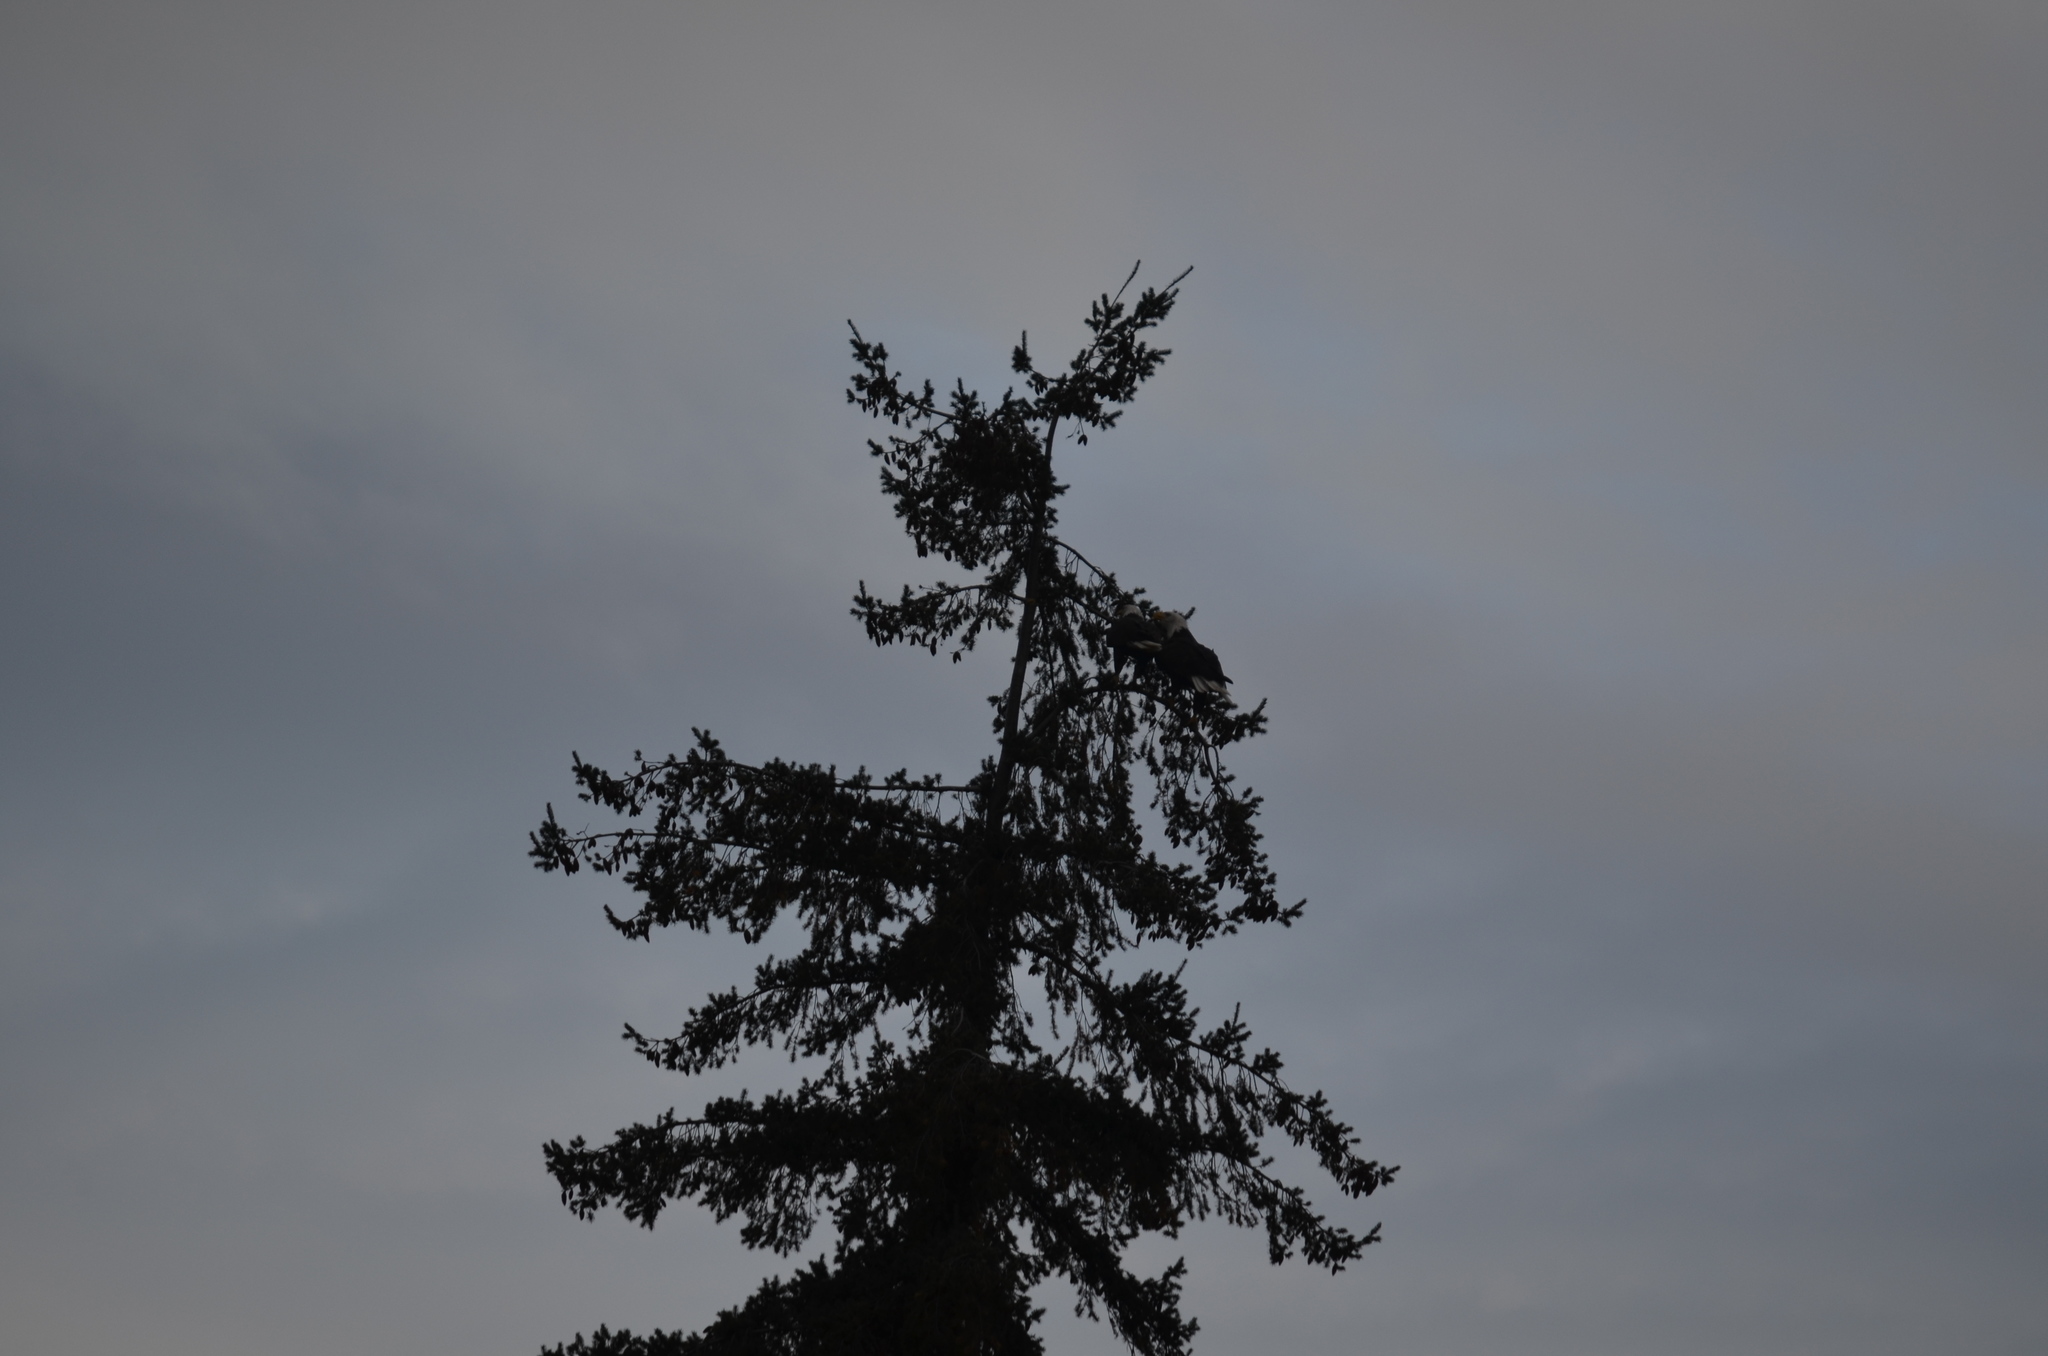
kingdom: Animalia
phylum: Chordata
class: Aves
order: Accipitriformes
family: Accipitridae
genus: Haliaeetus
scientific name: Haliaeetus leucocephalus
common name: Bald eagle
